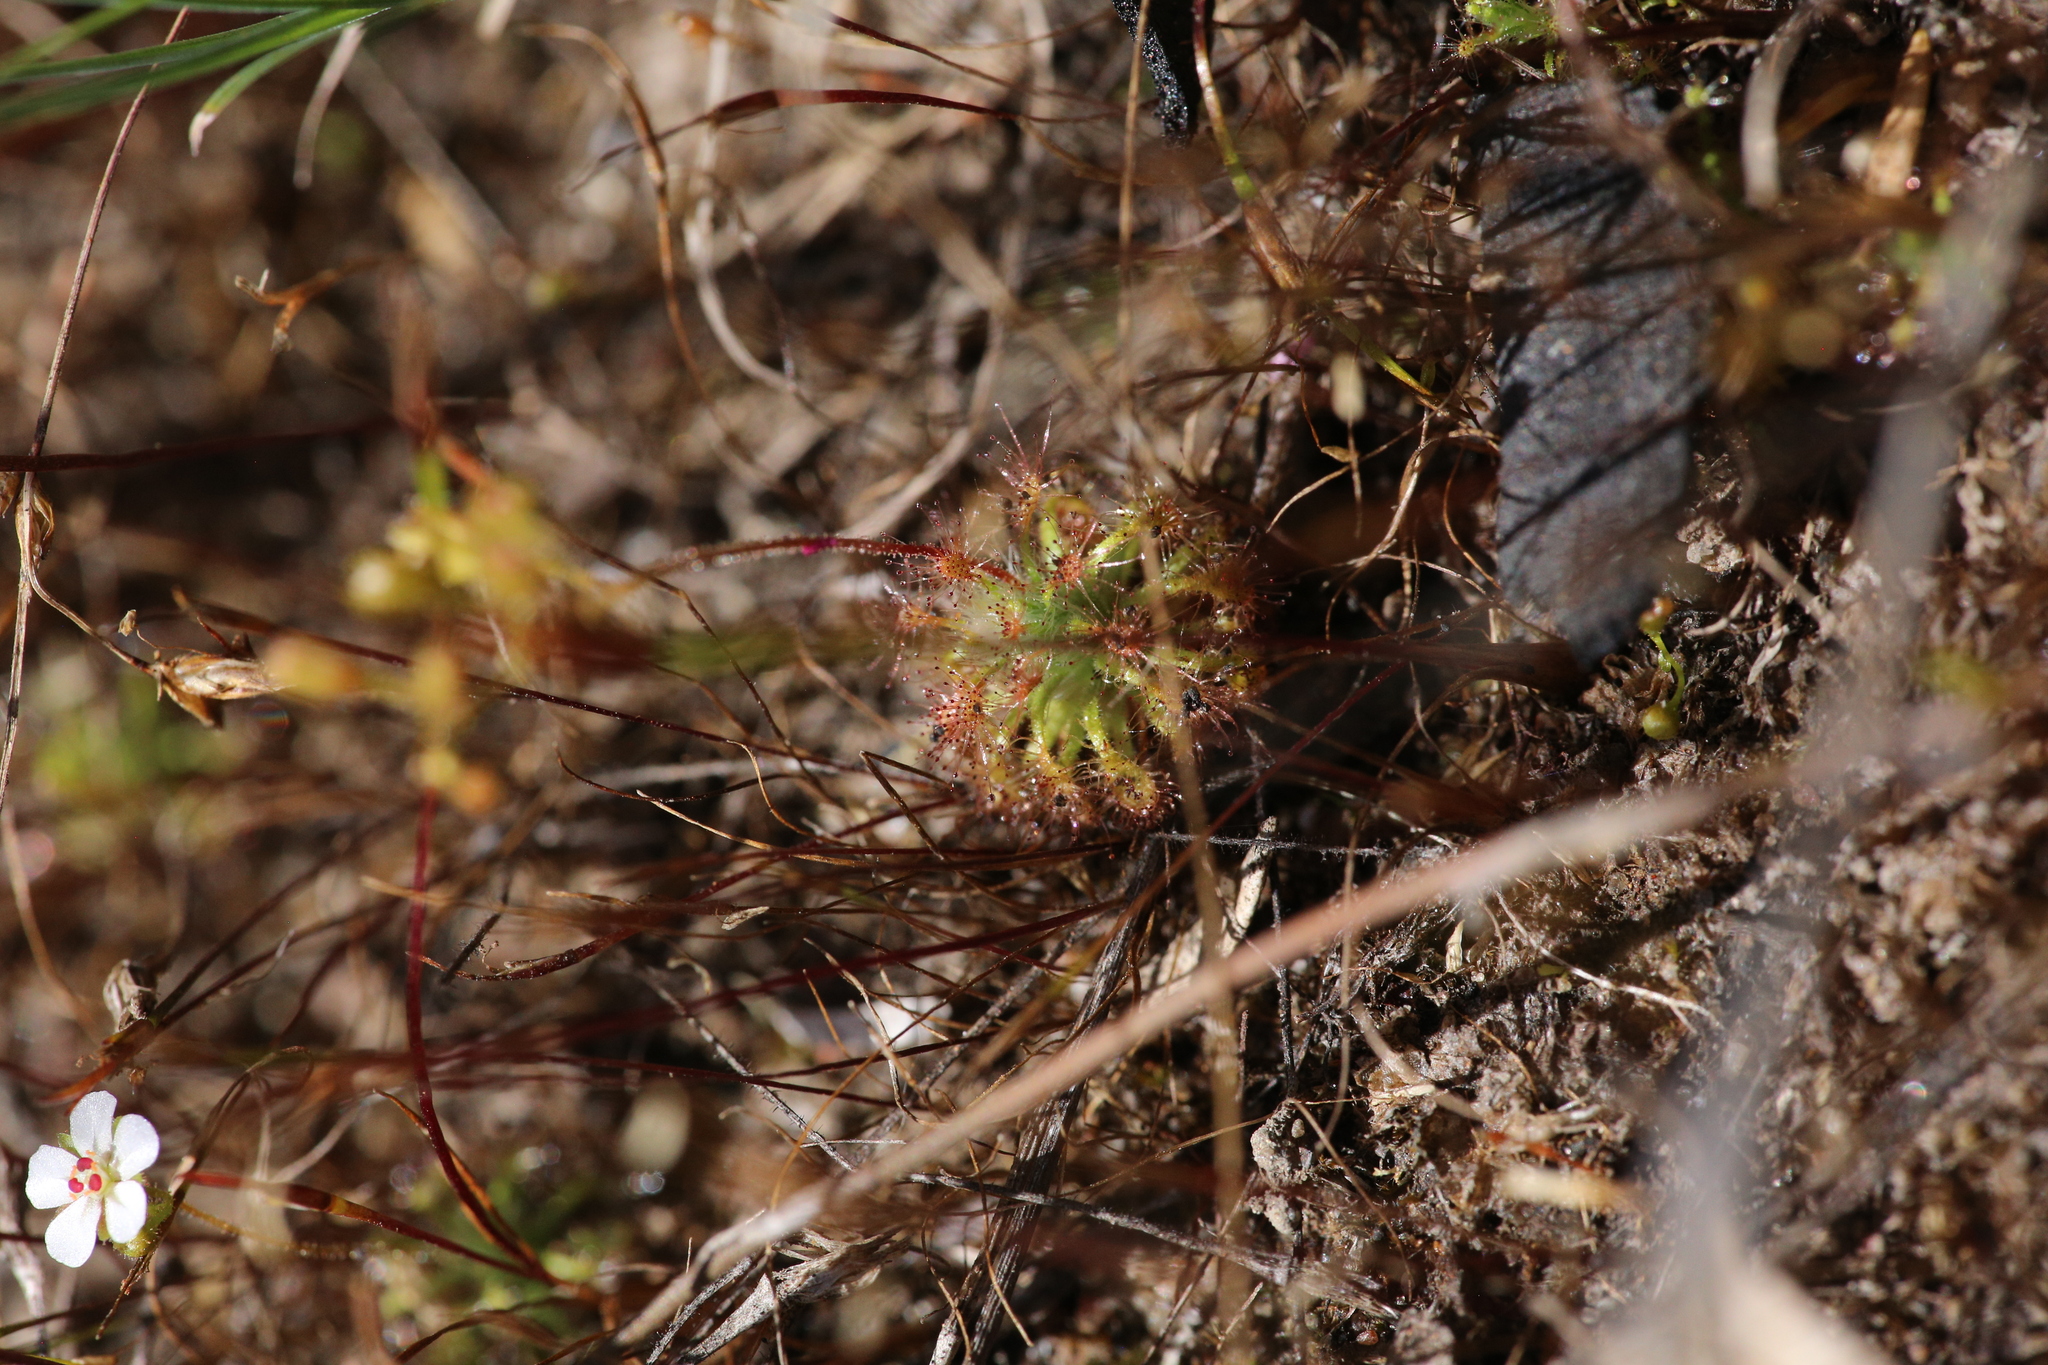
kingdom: Plantae
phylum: Tracheophyta
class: Magnoliopsida
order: Caryophyllales
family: Droseraceae
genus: Drosera
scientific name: Drosera nitidula
